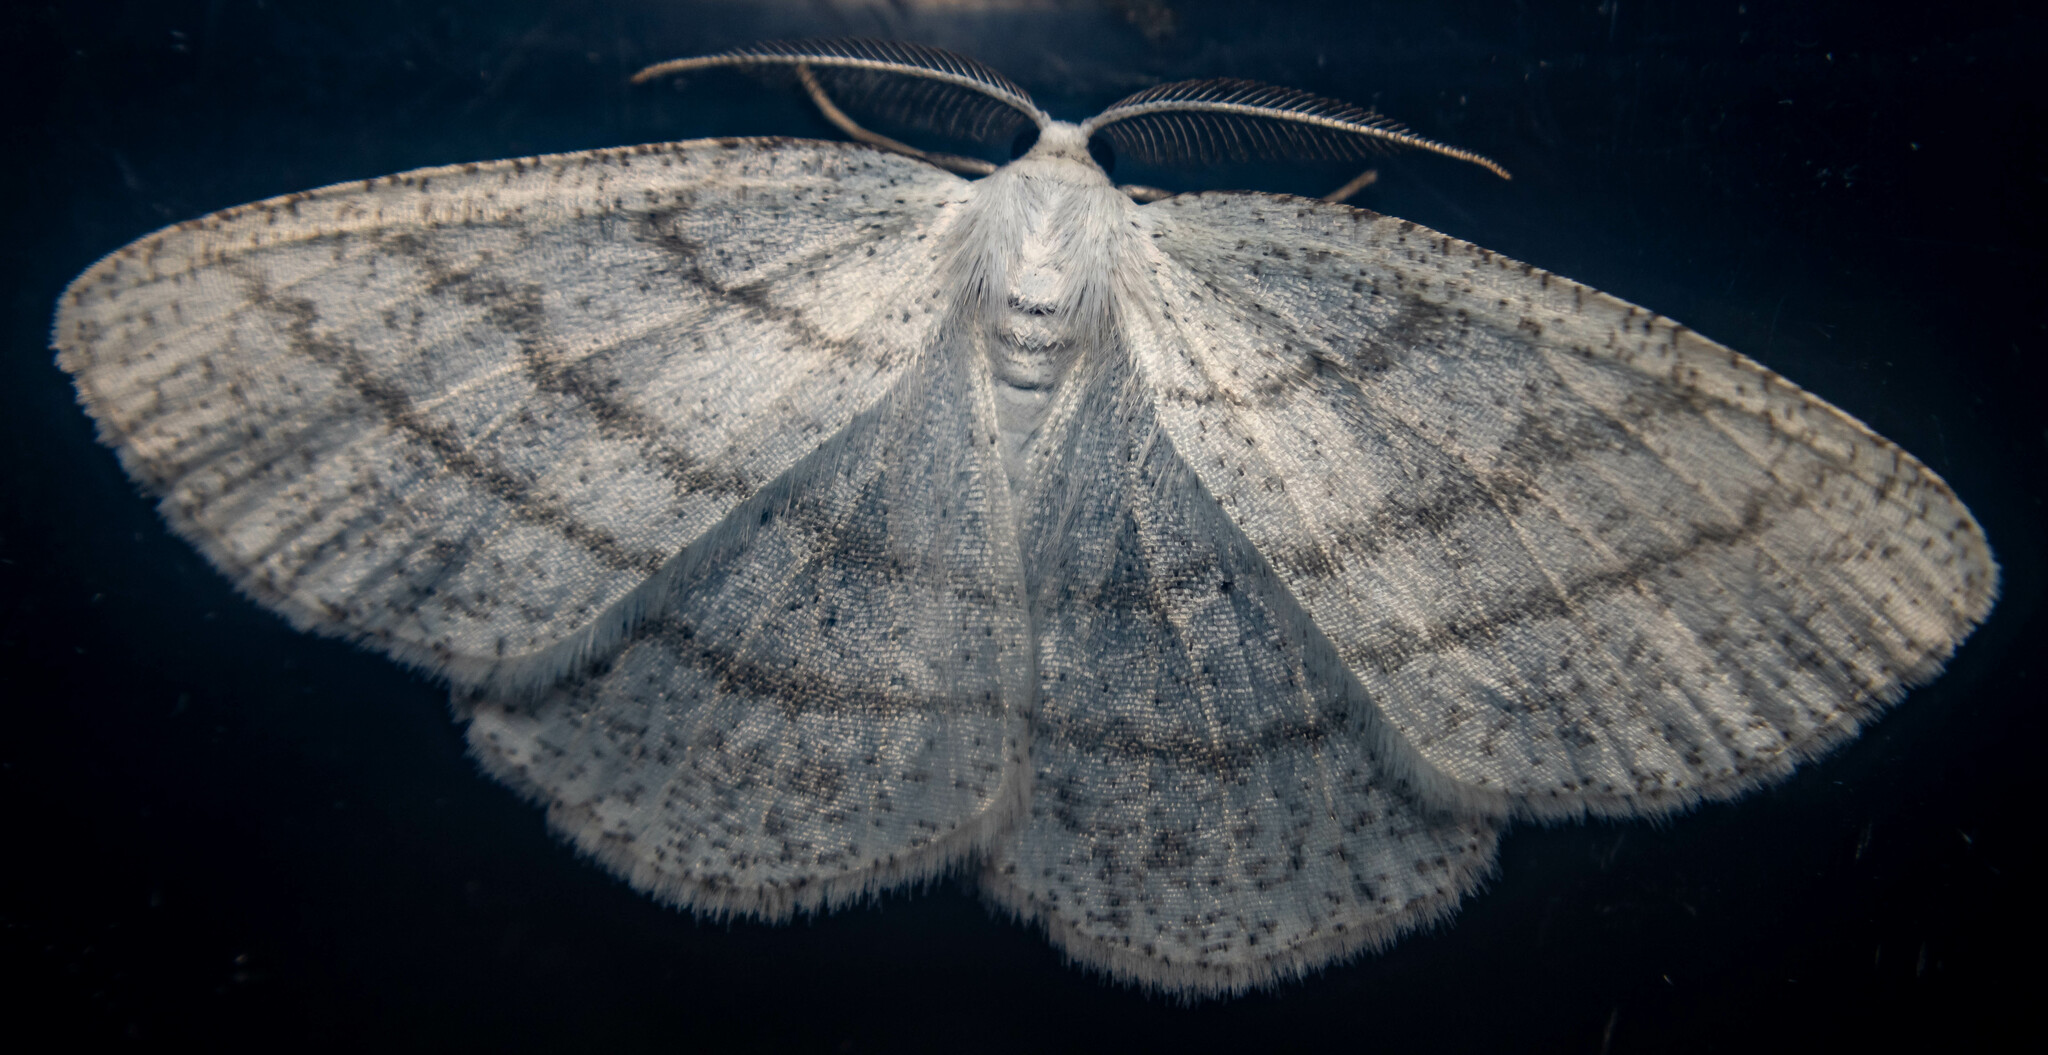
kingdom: Animalia
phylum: Arthropoda
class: Insecta
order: Lepidoptera
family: Geometridae
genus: Cabera
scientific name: Cabera pusaria
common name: Common white wave
